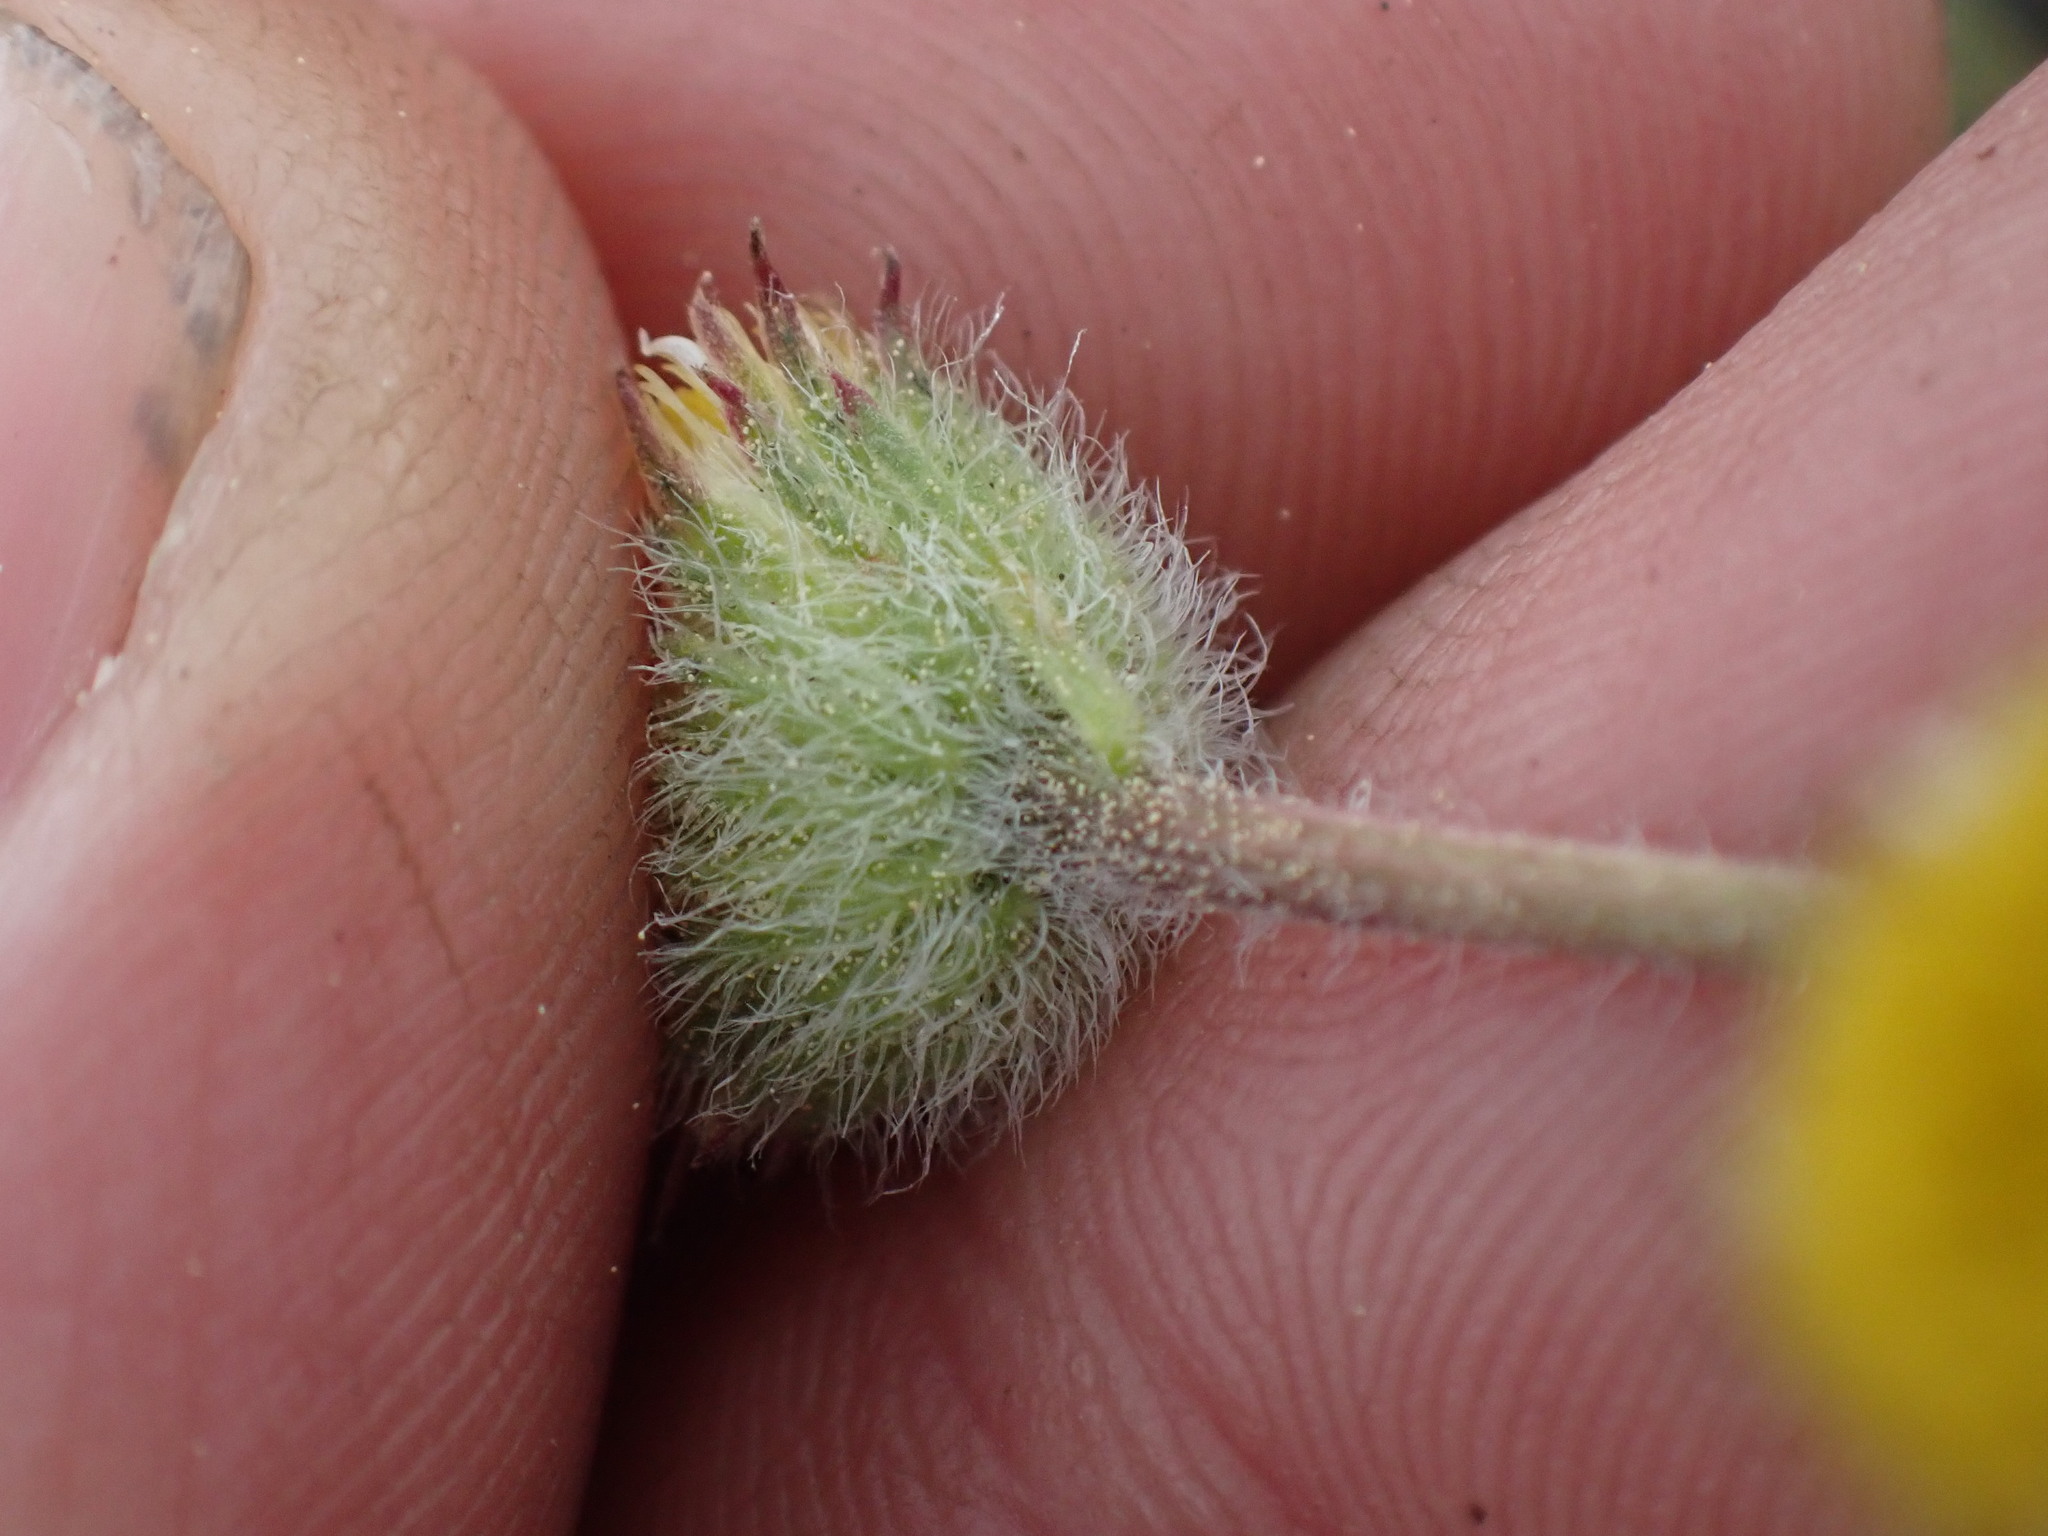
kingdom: Plantae
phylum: Tracheophyta
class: Magnoliopsida
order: Asterales
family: Asteraceae
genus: Erigeron
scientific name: Erigeron compositus
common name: Dwarf mountain fleabane
